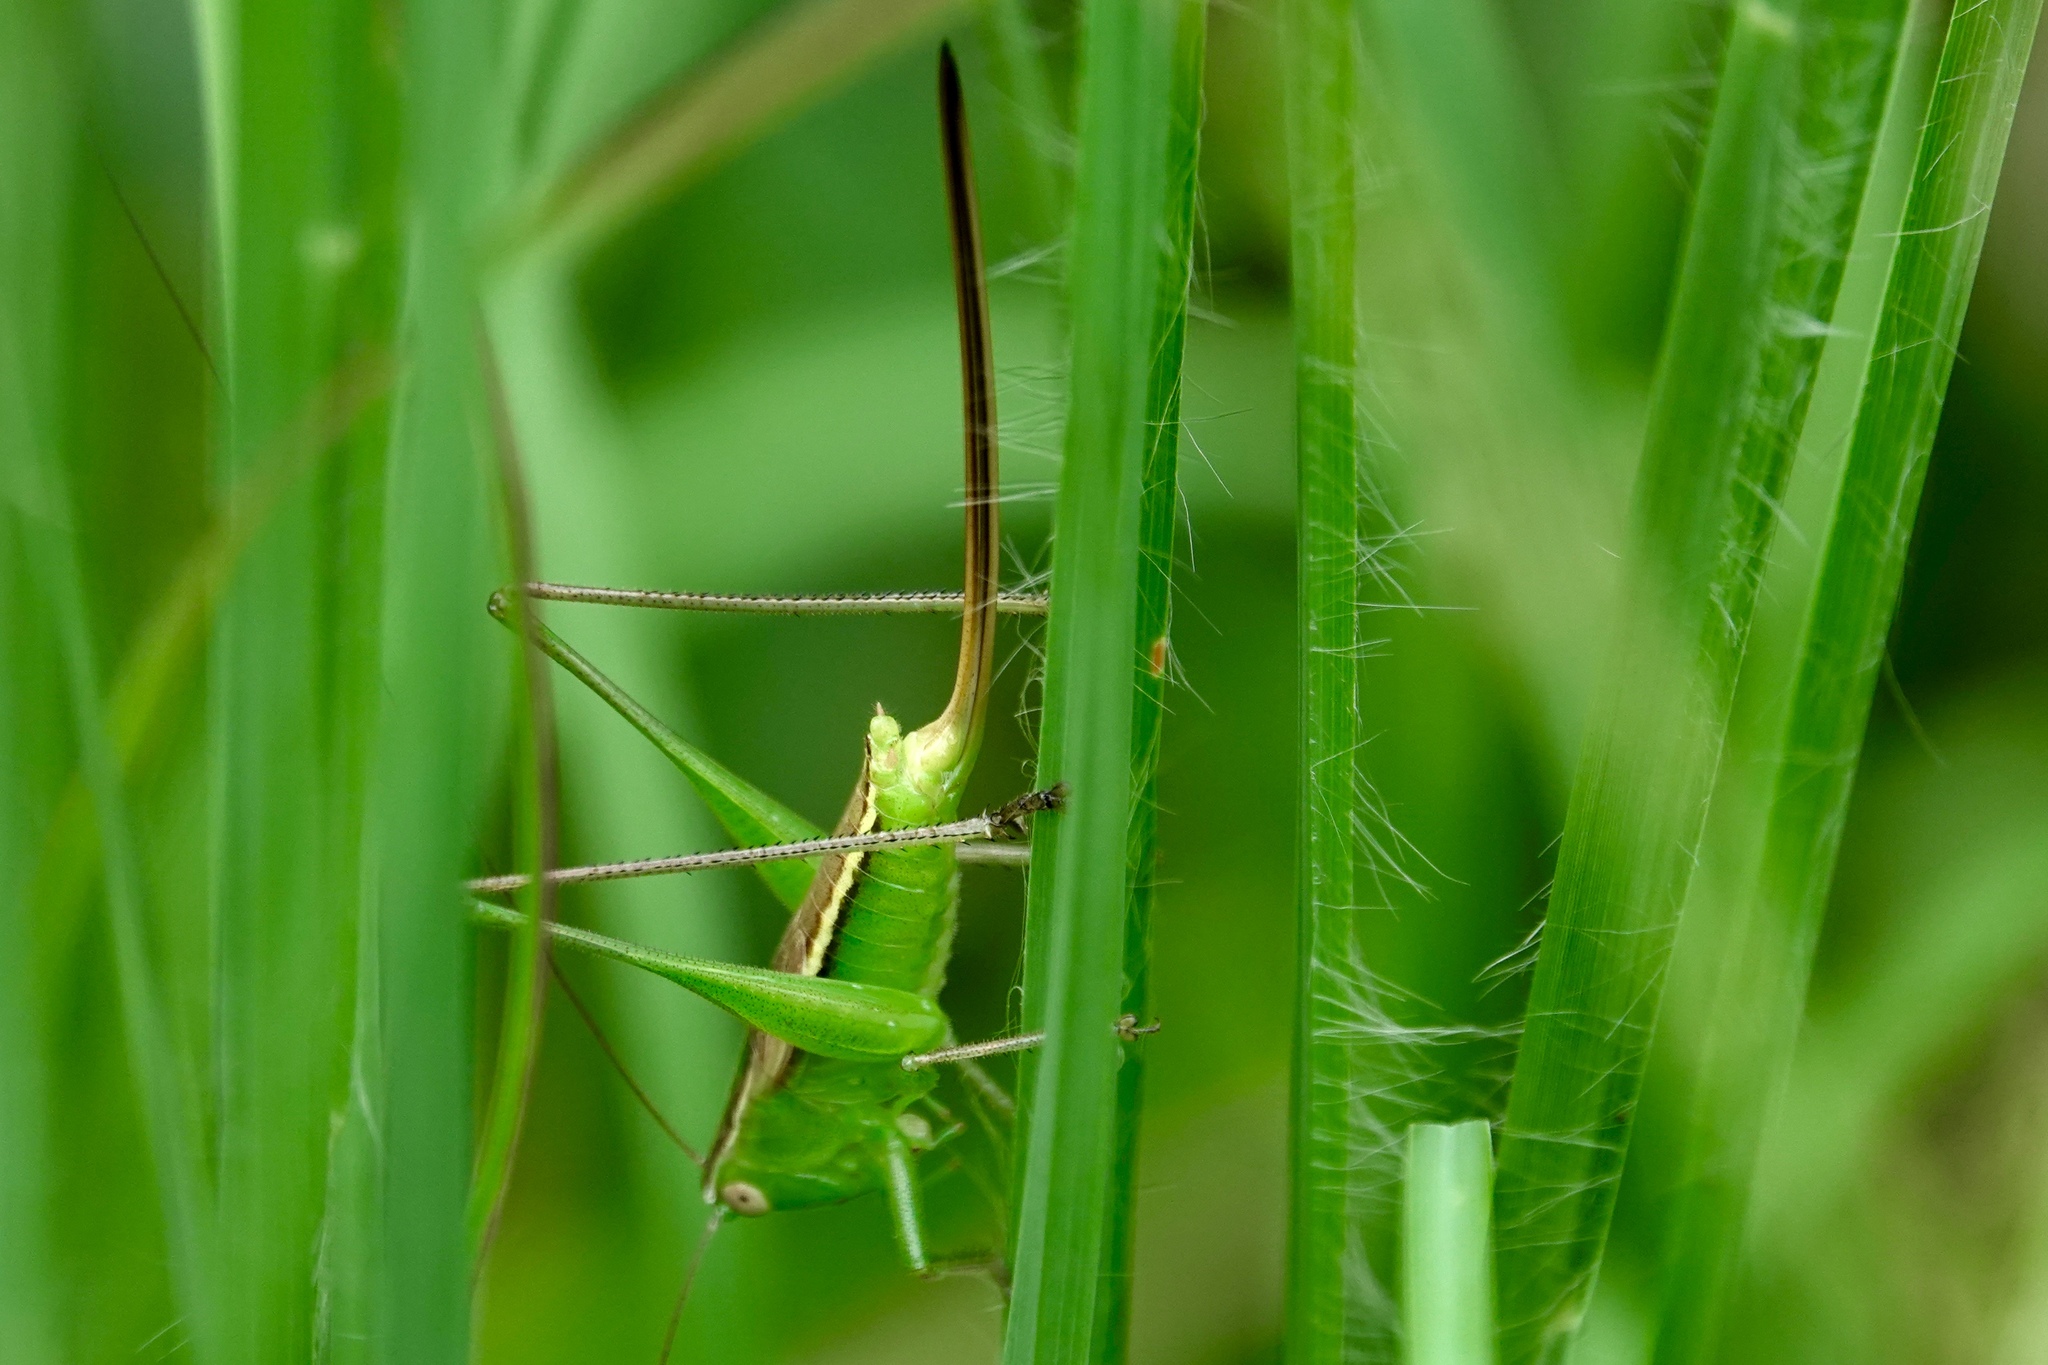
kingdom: Animalia
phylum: Arthropoda
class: Insecta
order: Orthoptera
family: Tettigoniidae
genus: Conocephalus
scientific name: Conocephalus strictus
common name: Straight-lanced katydid
